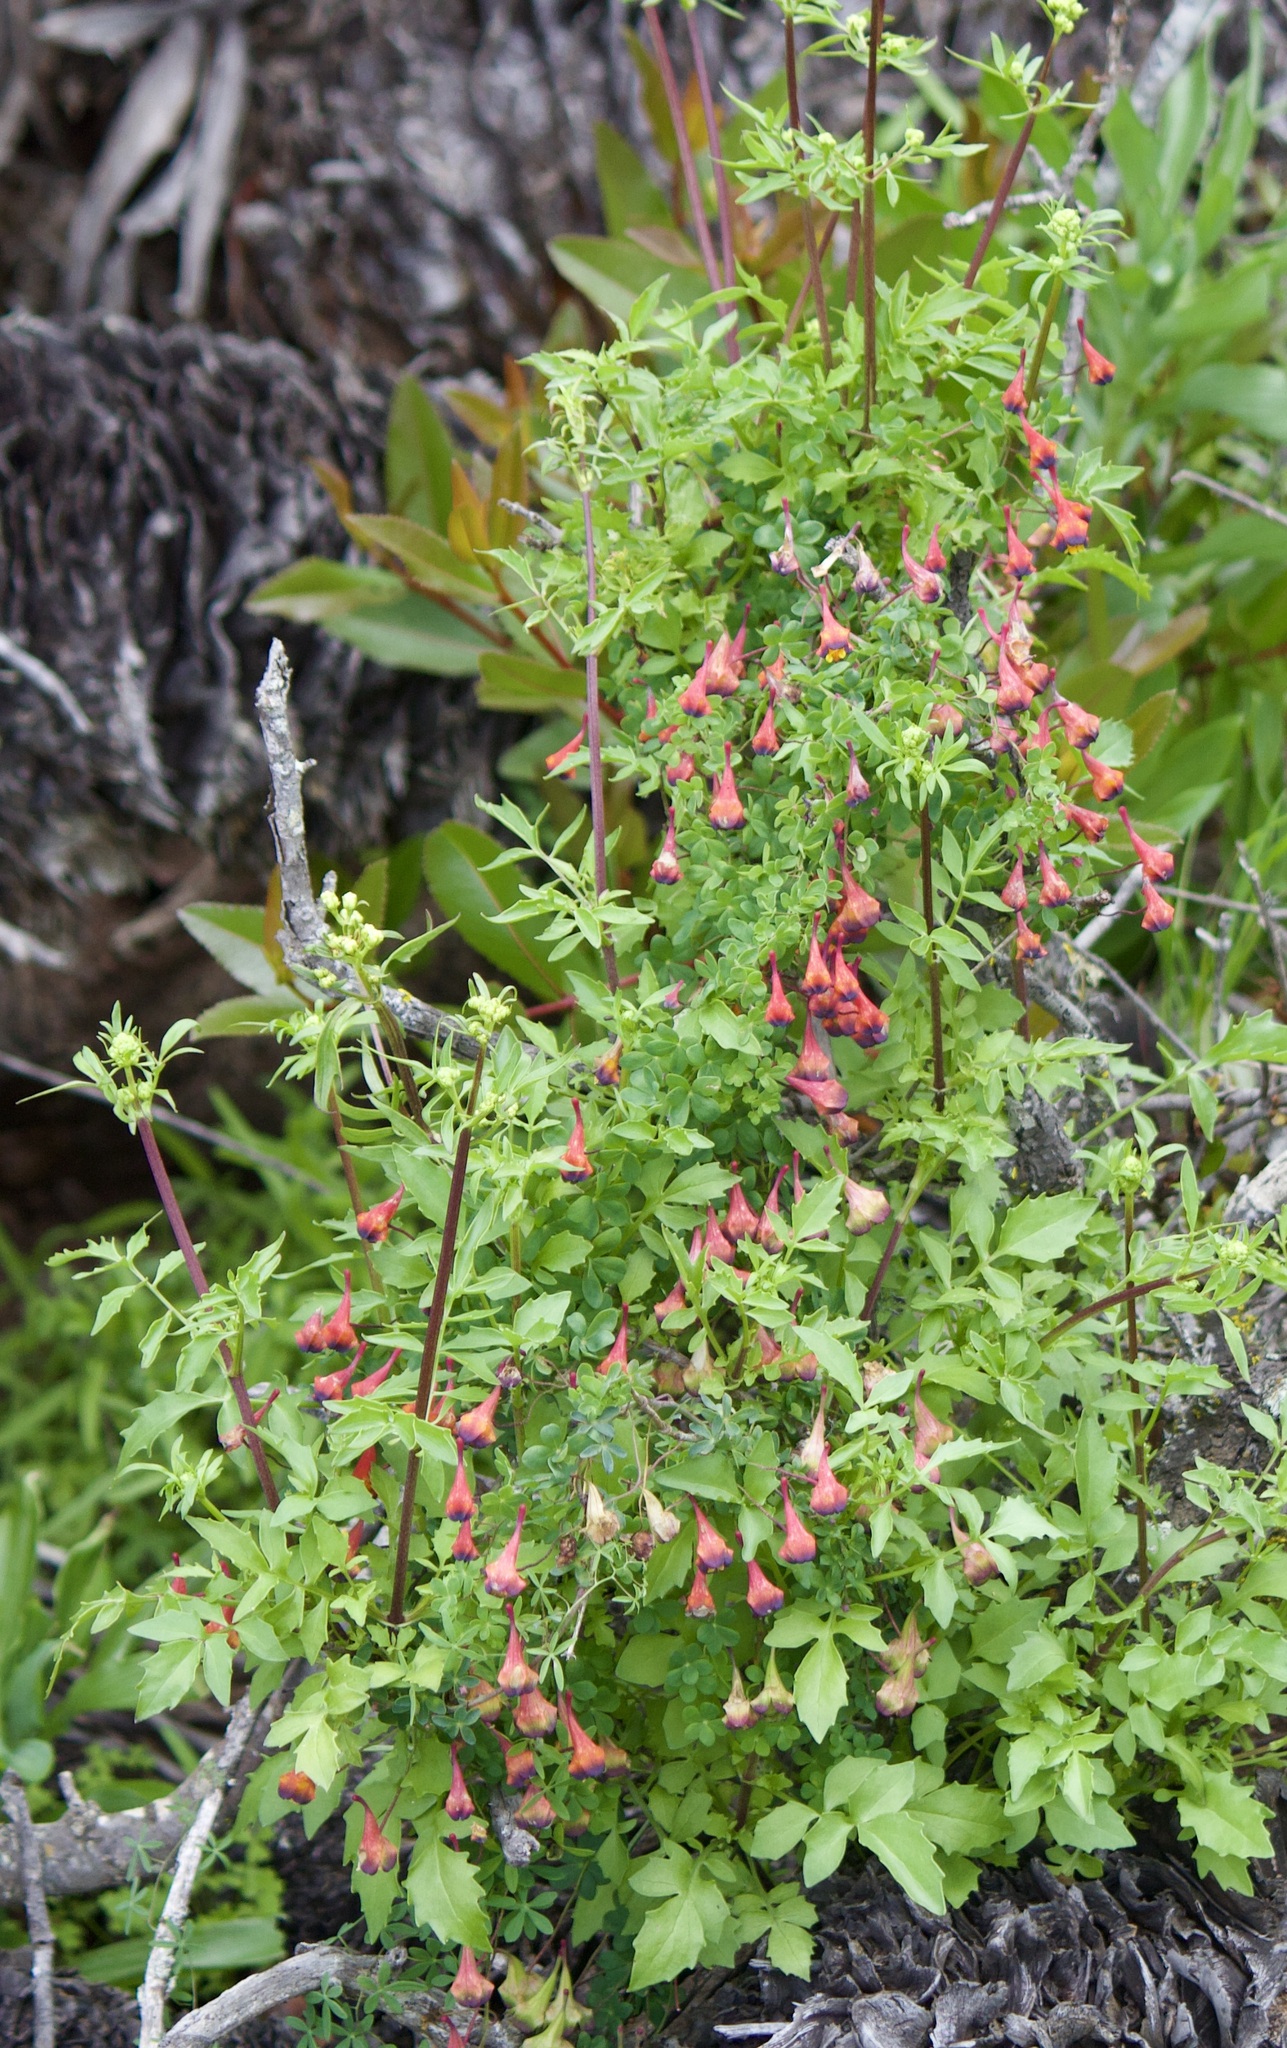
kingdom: Plantae
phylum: Tracheophyta
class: Magnoliopsida
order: Brassicales
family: Tropaeolaceae
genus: Tropaeolum
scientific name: Tropaeolum tricolor
